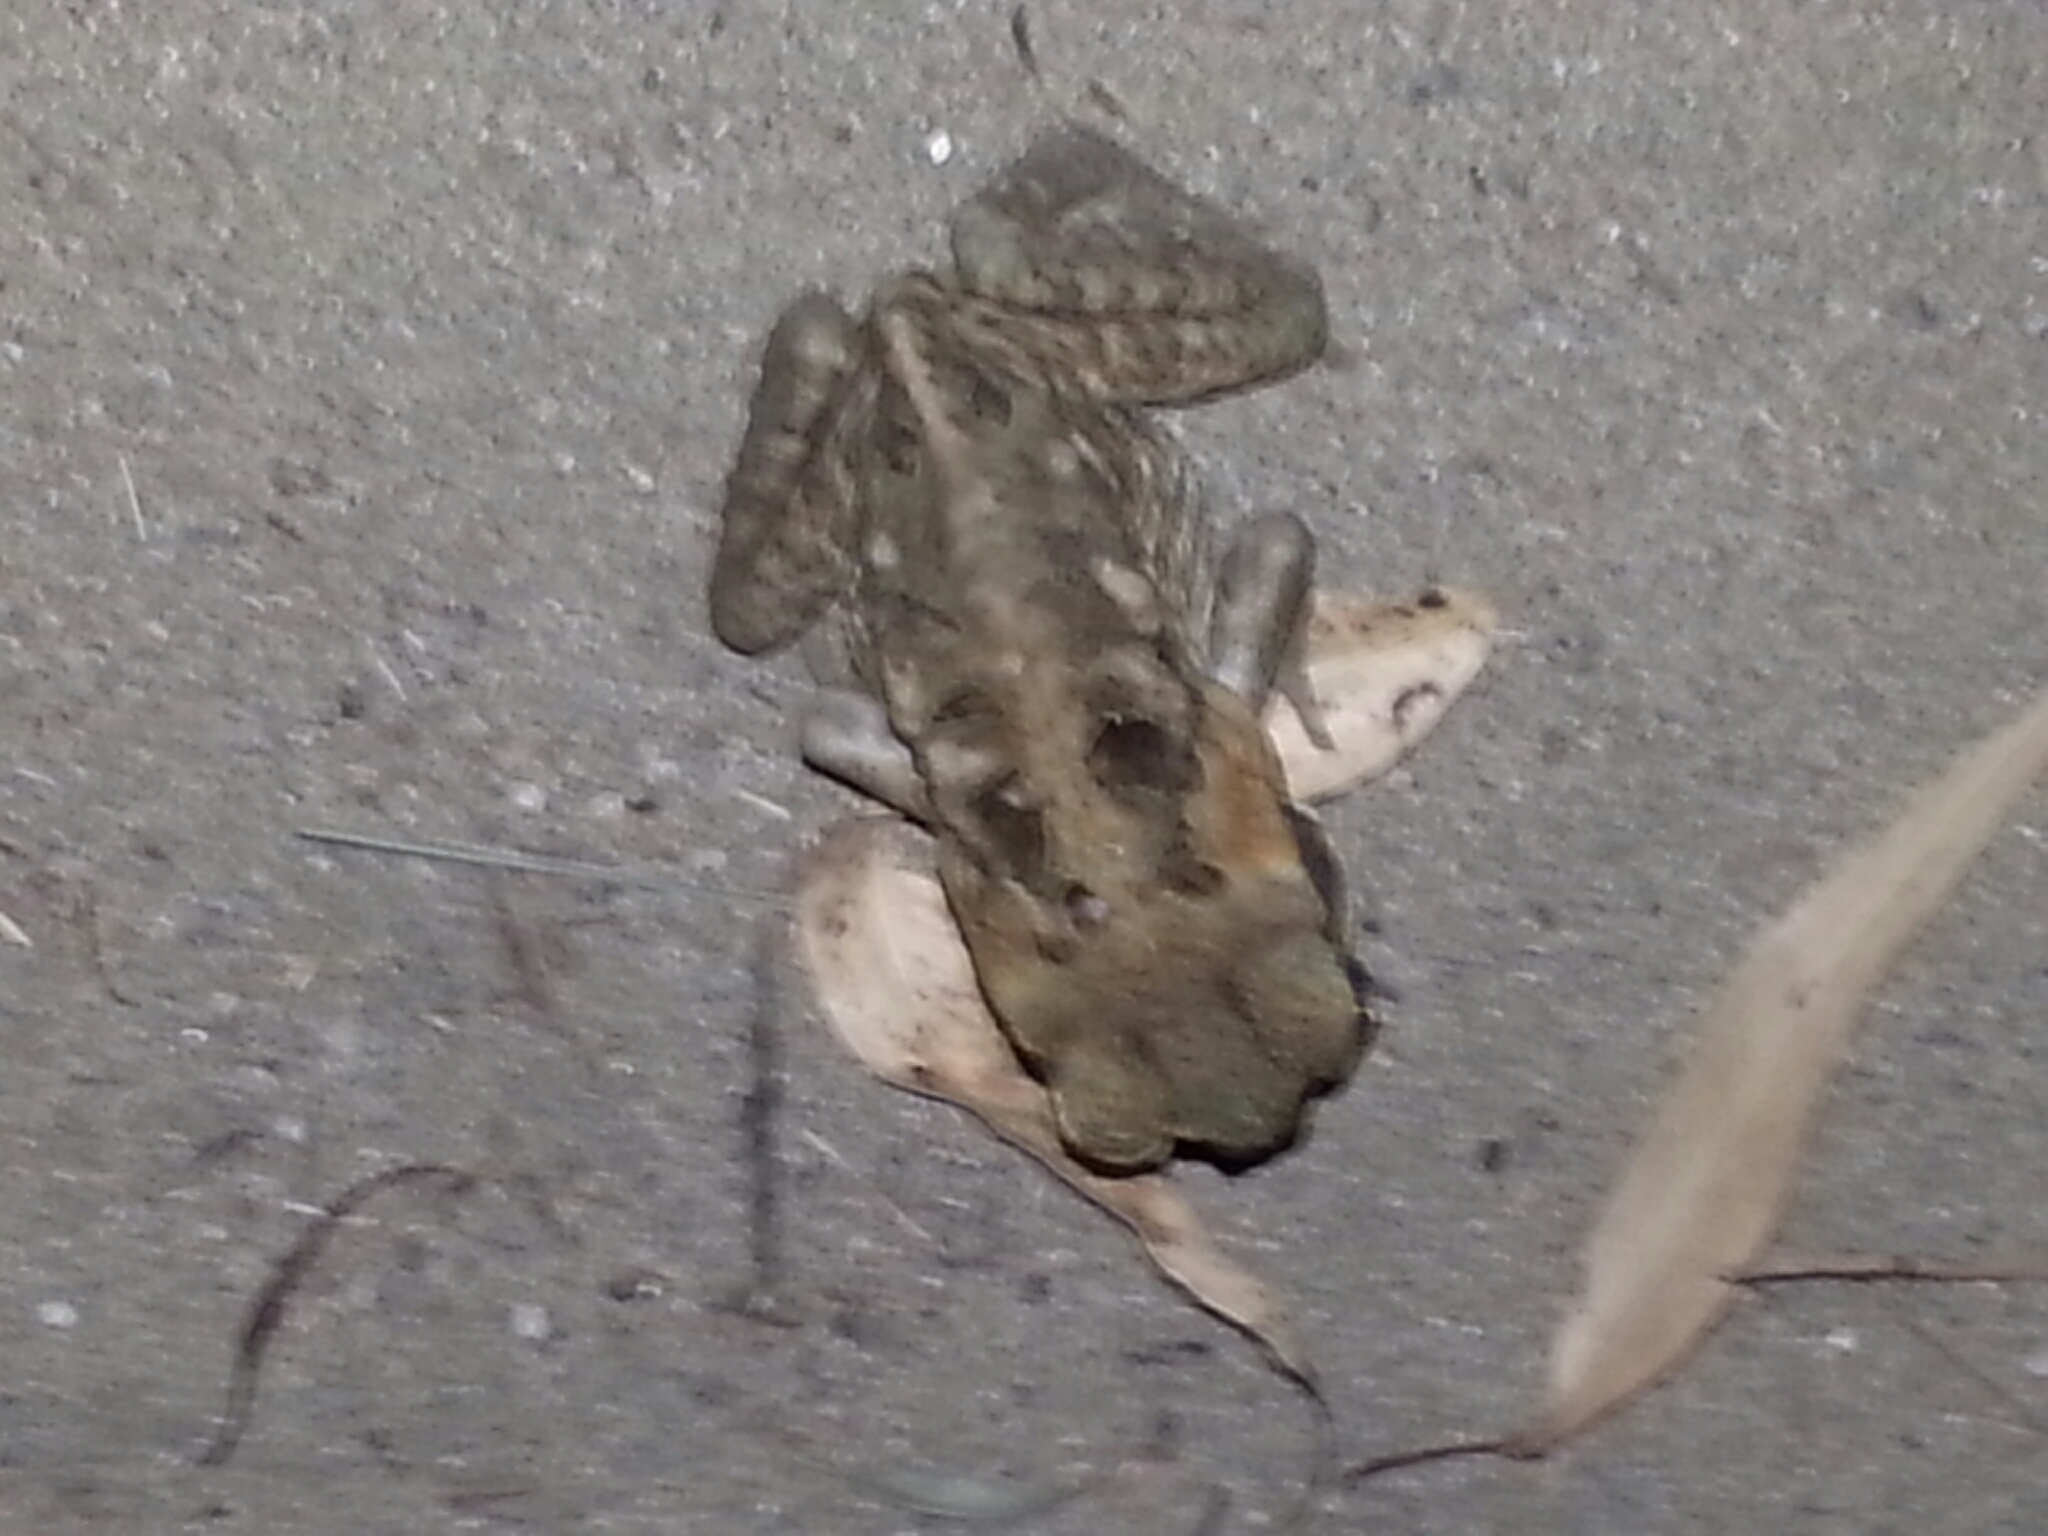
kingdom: Animalia
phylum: Chordata
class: Amphibia
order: Anura
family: Bufonidae
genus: Rhinella
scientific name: Rhinella marina
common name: Cane toad
